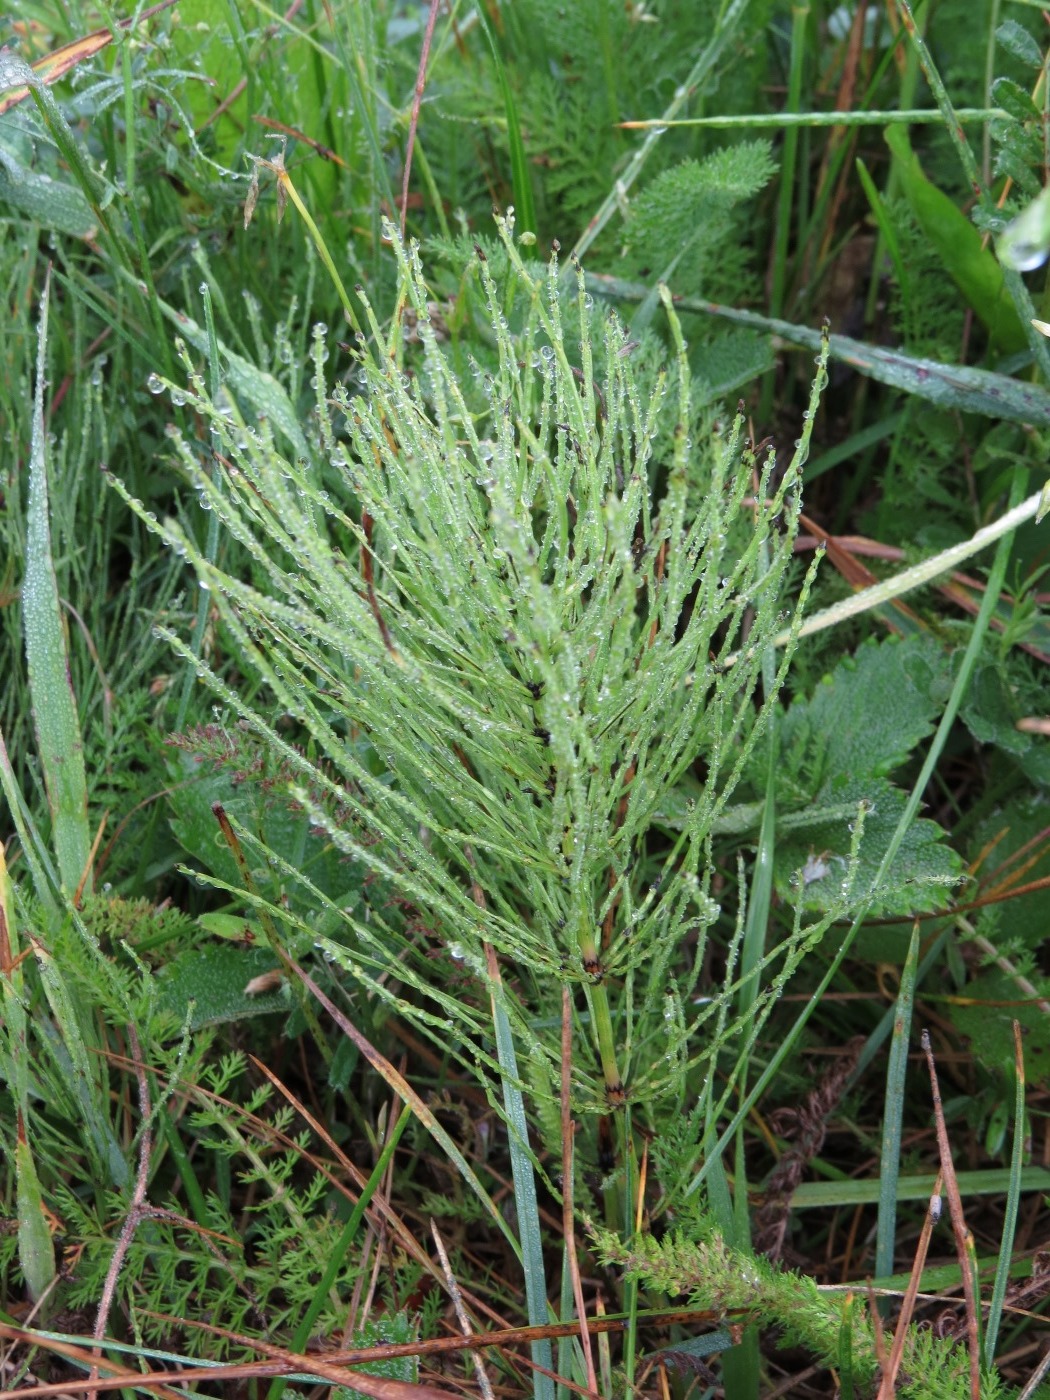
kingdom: Plantae
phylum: Tracheophyta
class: Polypodiopsida
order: Equisetales
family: Equisetaceae
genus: Equisetum
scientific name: Equisetum arvense
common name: Field horsetail
